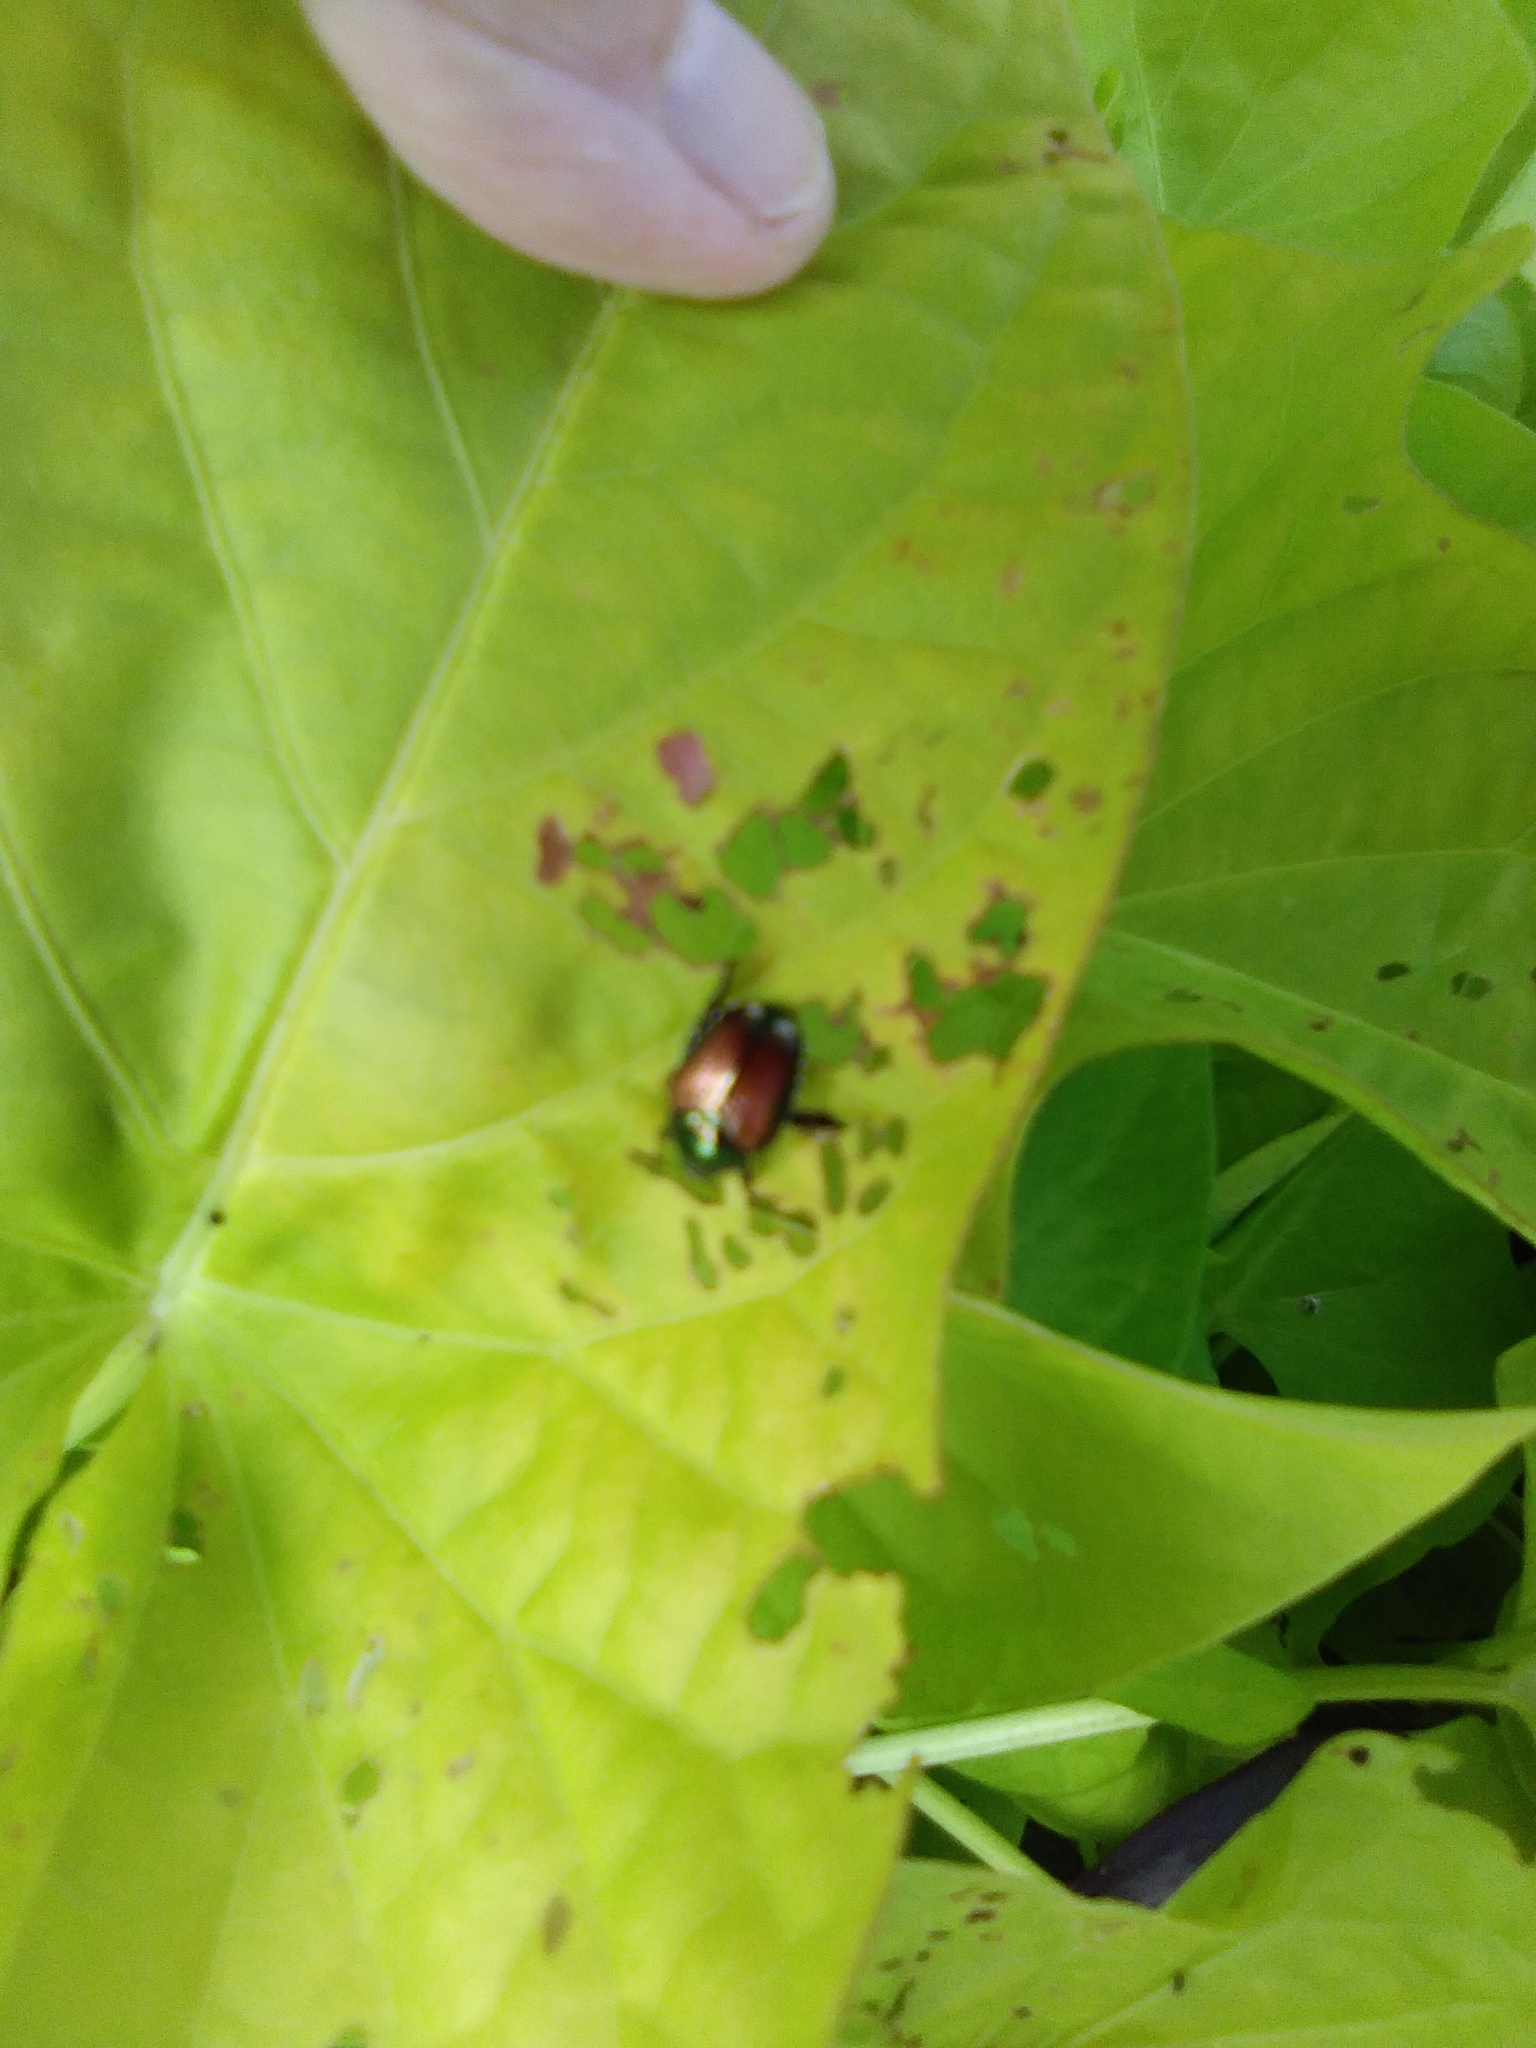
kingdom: Animalia
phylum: Arthropoda
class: Insecta
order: Coleoptera
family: Scarabaeidae
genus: Popillia
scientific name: Popillia japonica
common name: Japanese beetle
